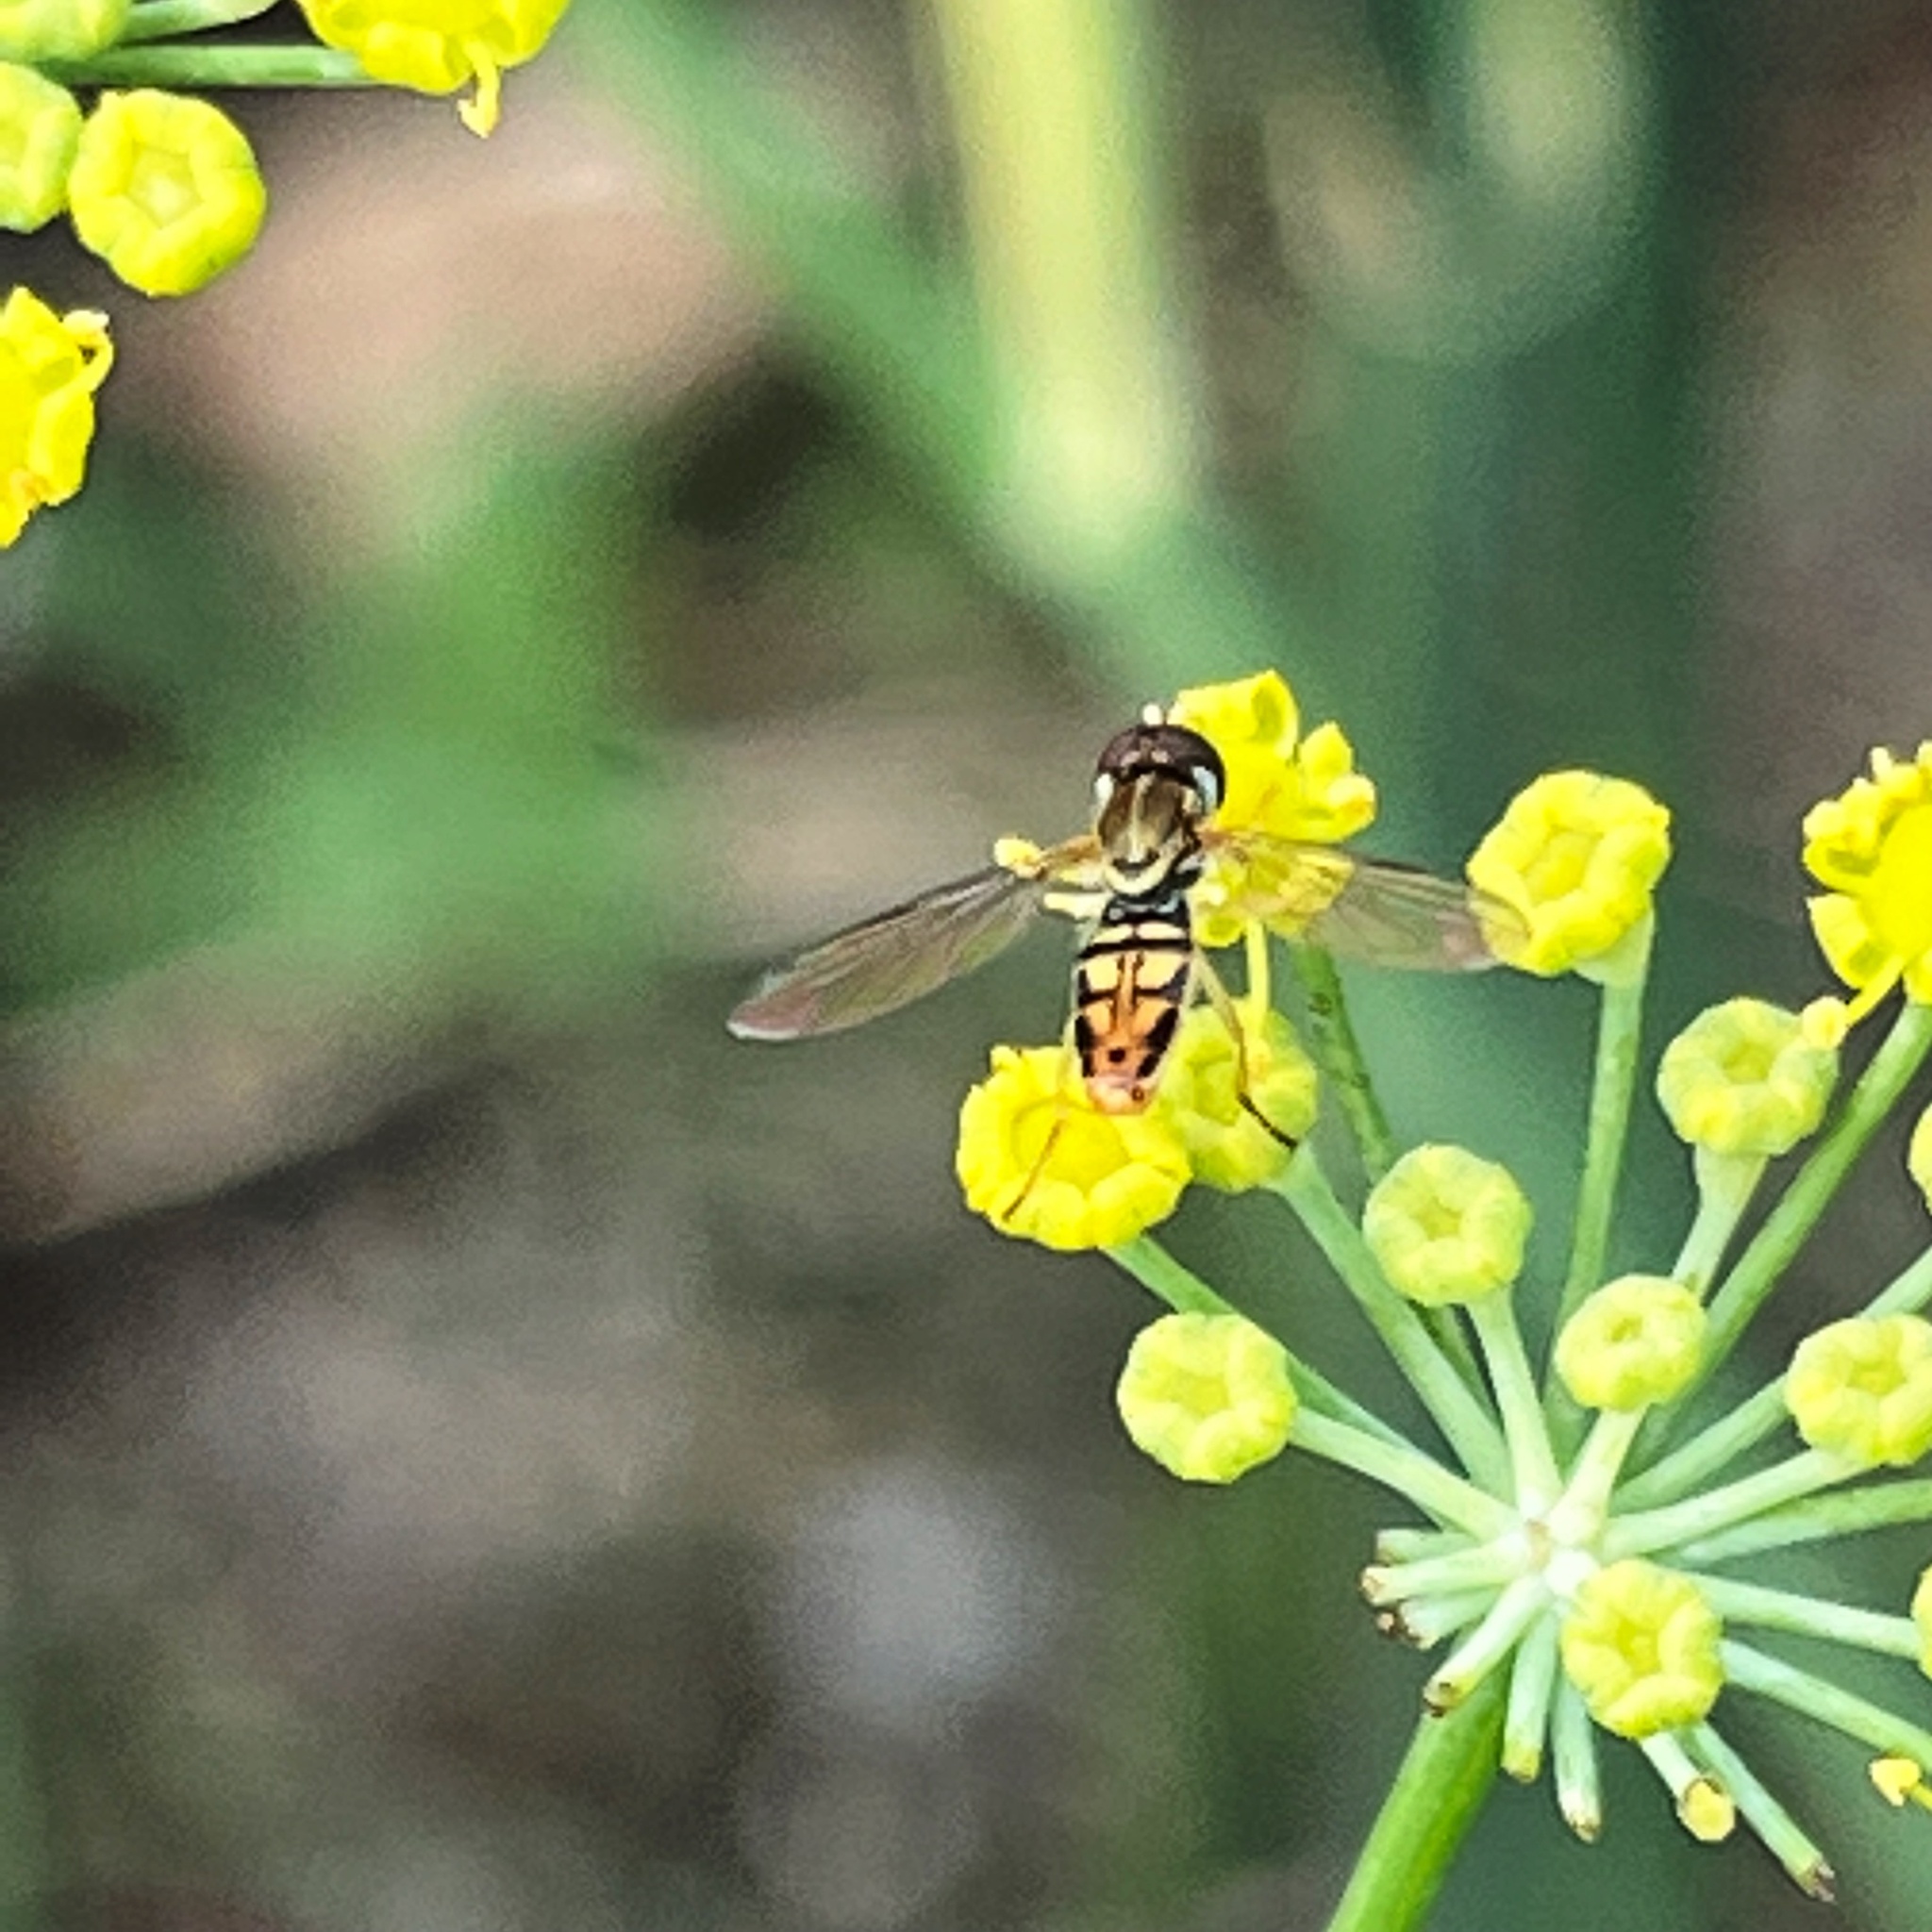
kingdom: Animalia
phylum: Arthropoda
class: Insecta
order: Diptera
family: Syrphidae
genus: Toxomerus
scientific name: Toxomerus marginatus
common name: Syrphid fly
